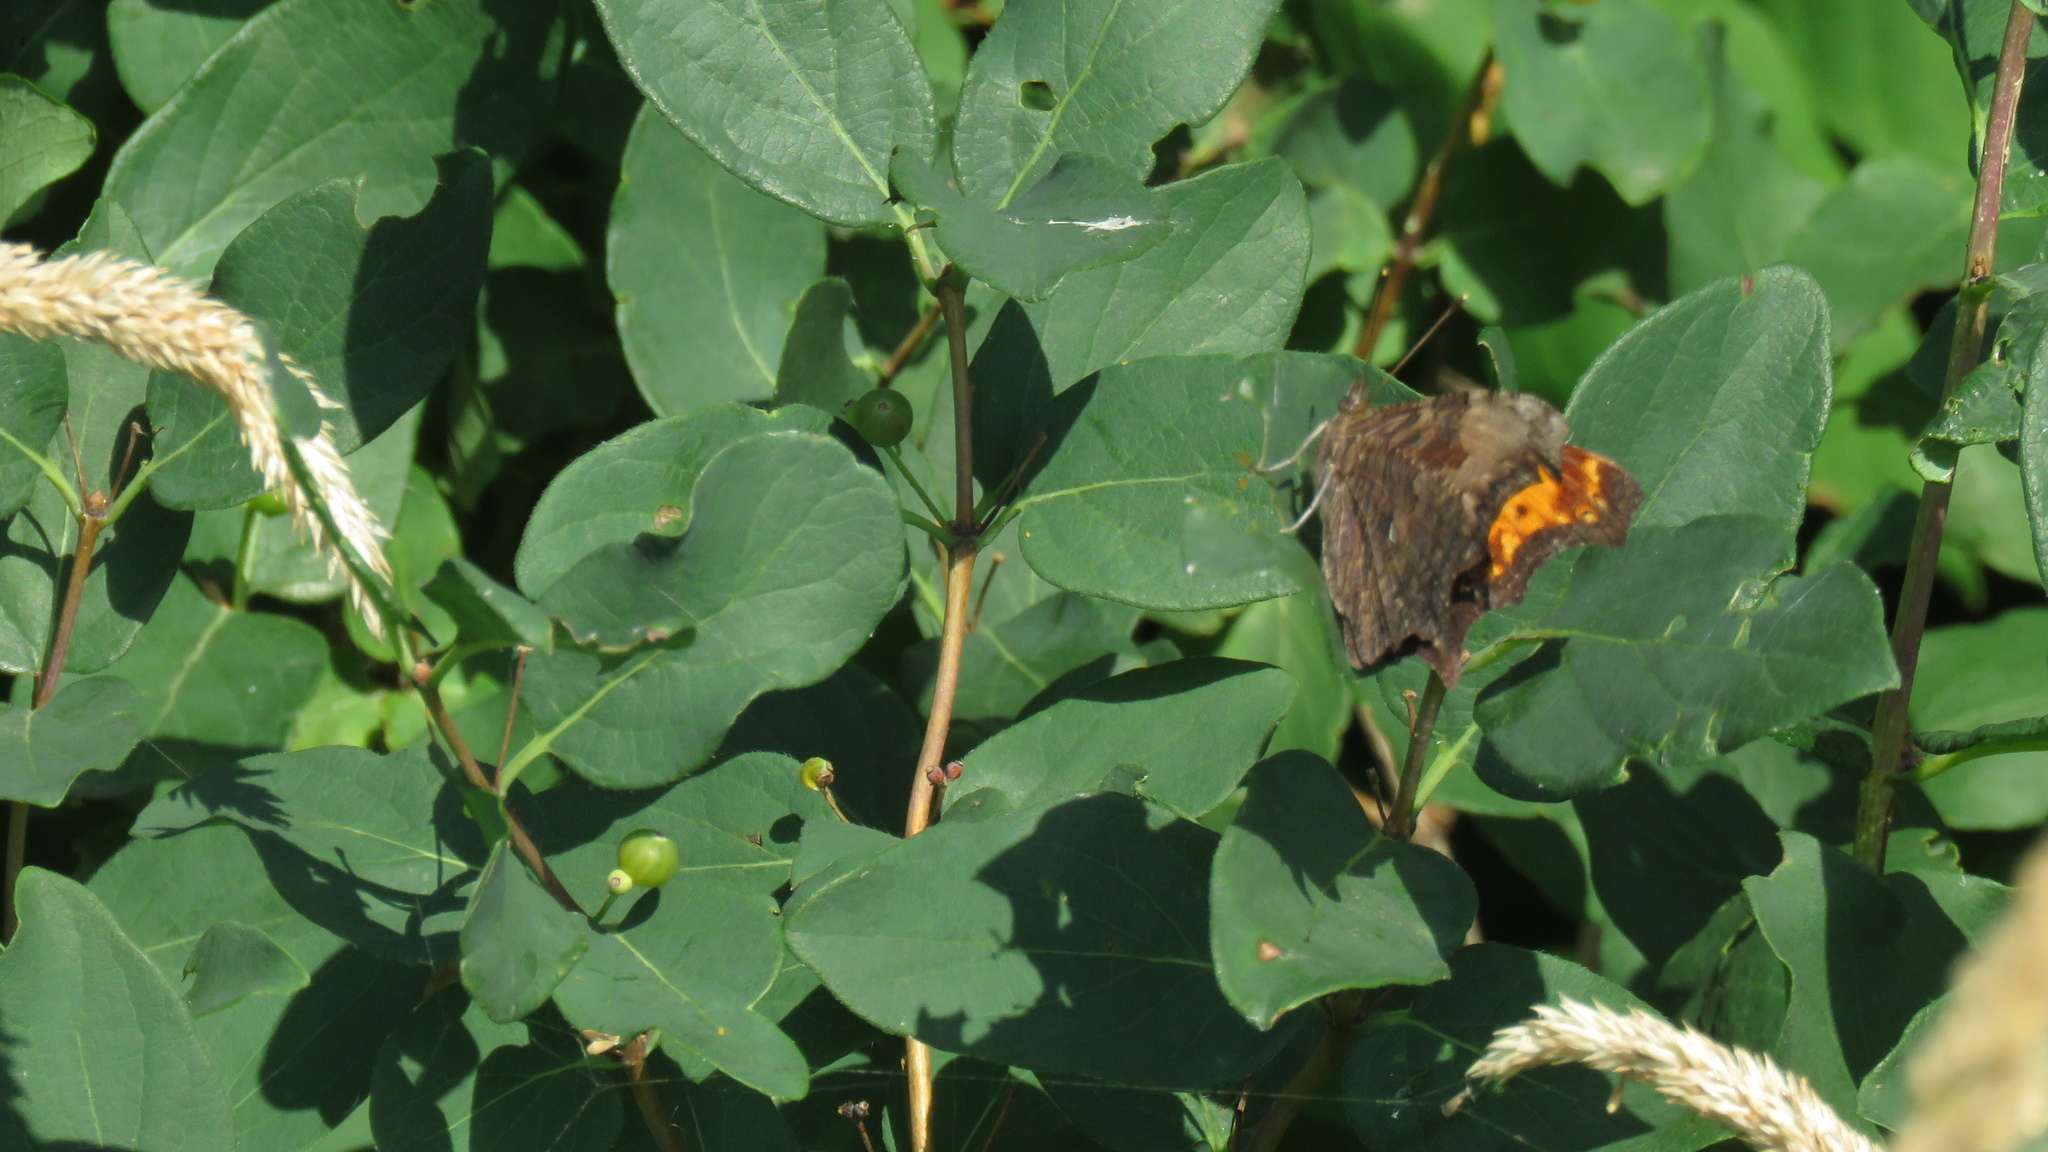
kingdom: Animalia
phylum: Arthropoda
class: Insecta
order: Lepidoptera
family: Nymphalidae
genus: Polygonia
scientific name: Polygonia progne
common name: Gray comma
